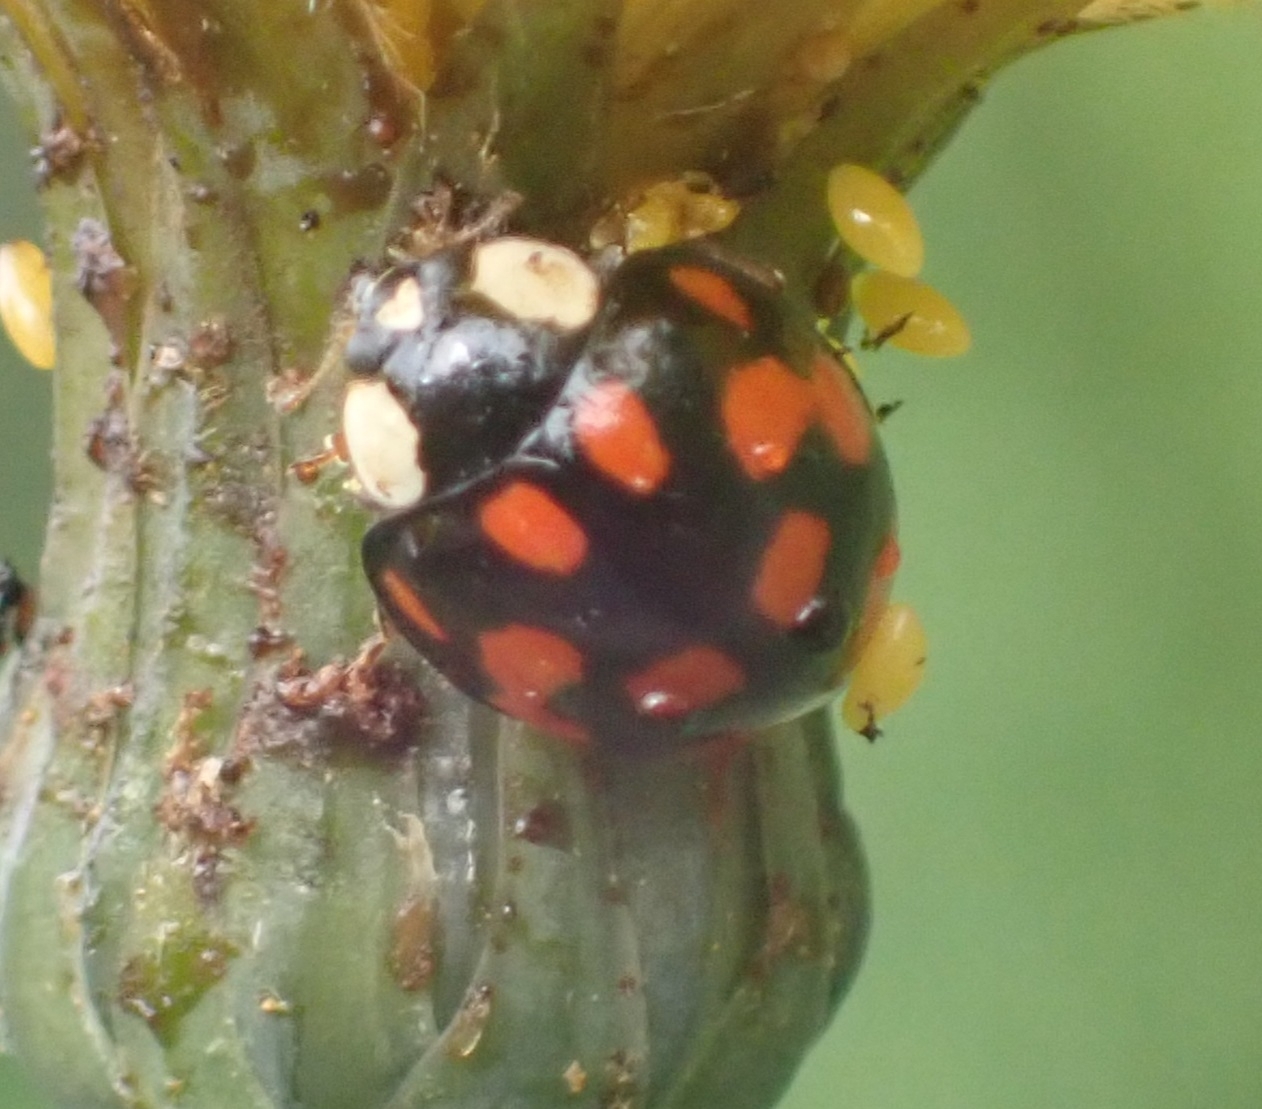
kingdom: Animalia
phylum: Arthropoda
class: Insecta
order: Coleoptera
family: Coccinellidae
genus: Harmonia
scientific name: Harmonia axyridis
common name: Harlequin ladybird
